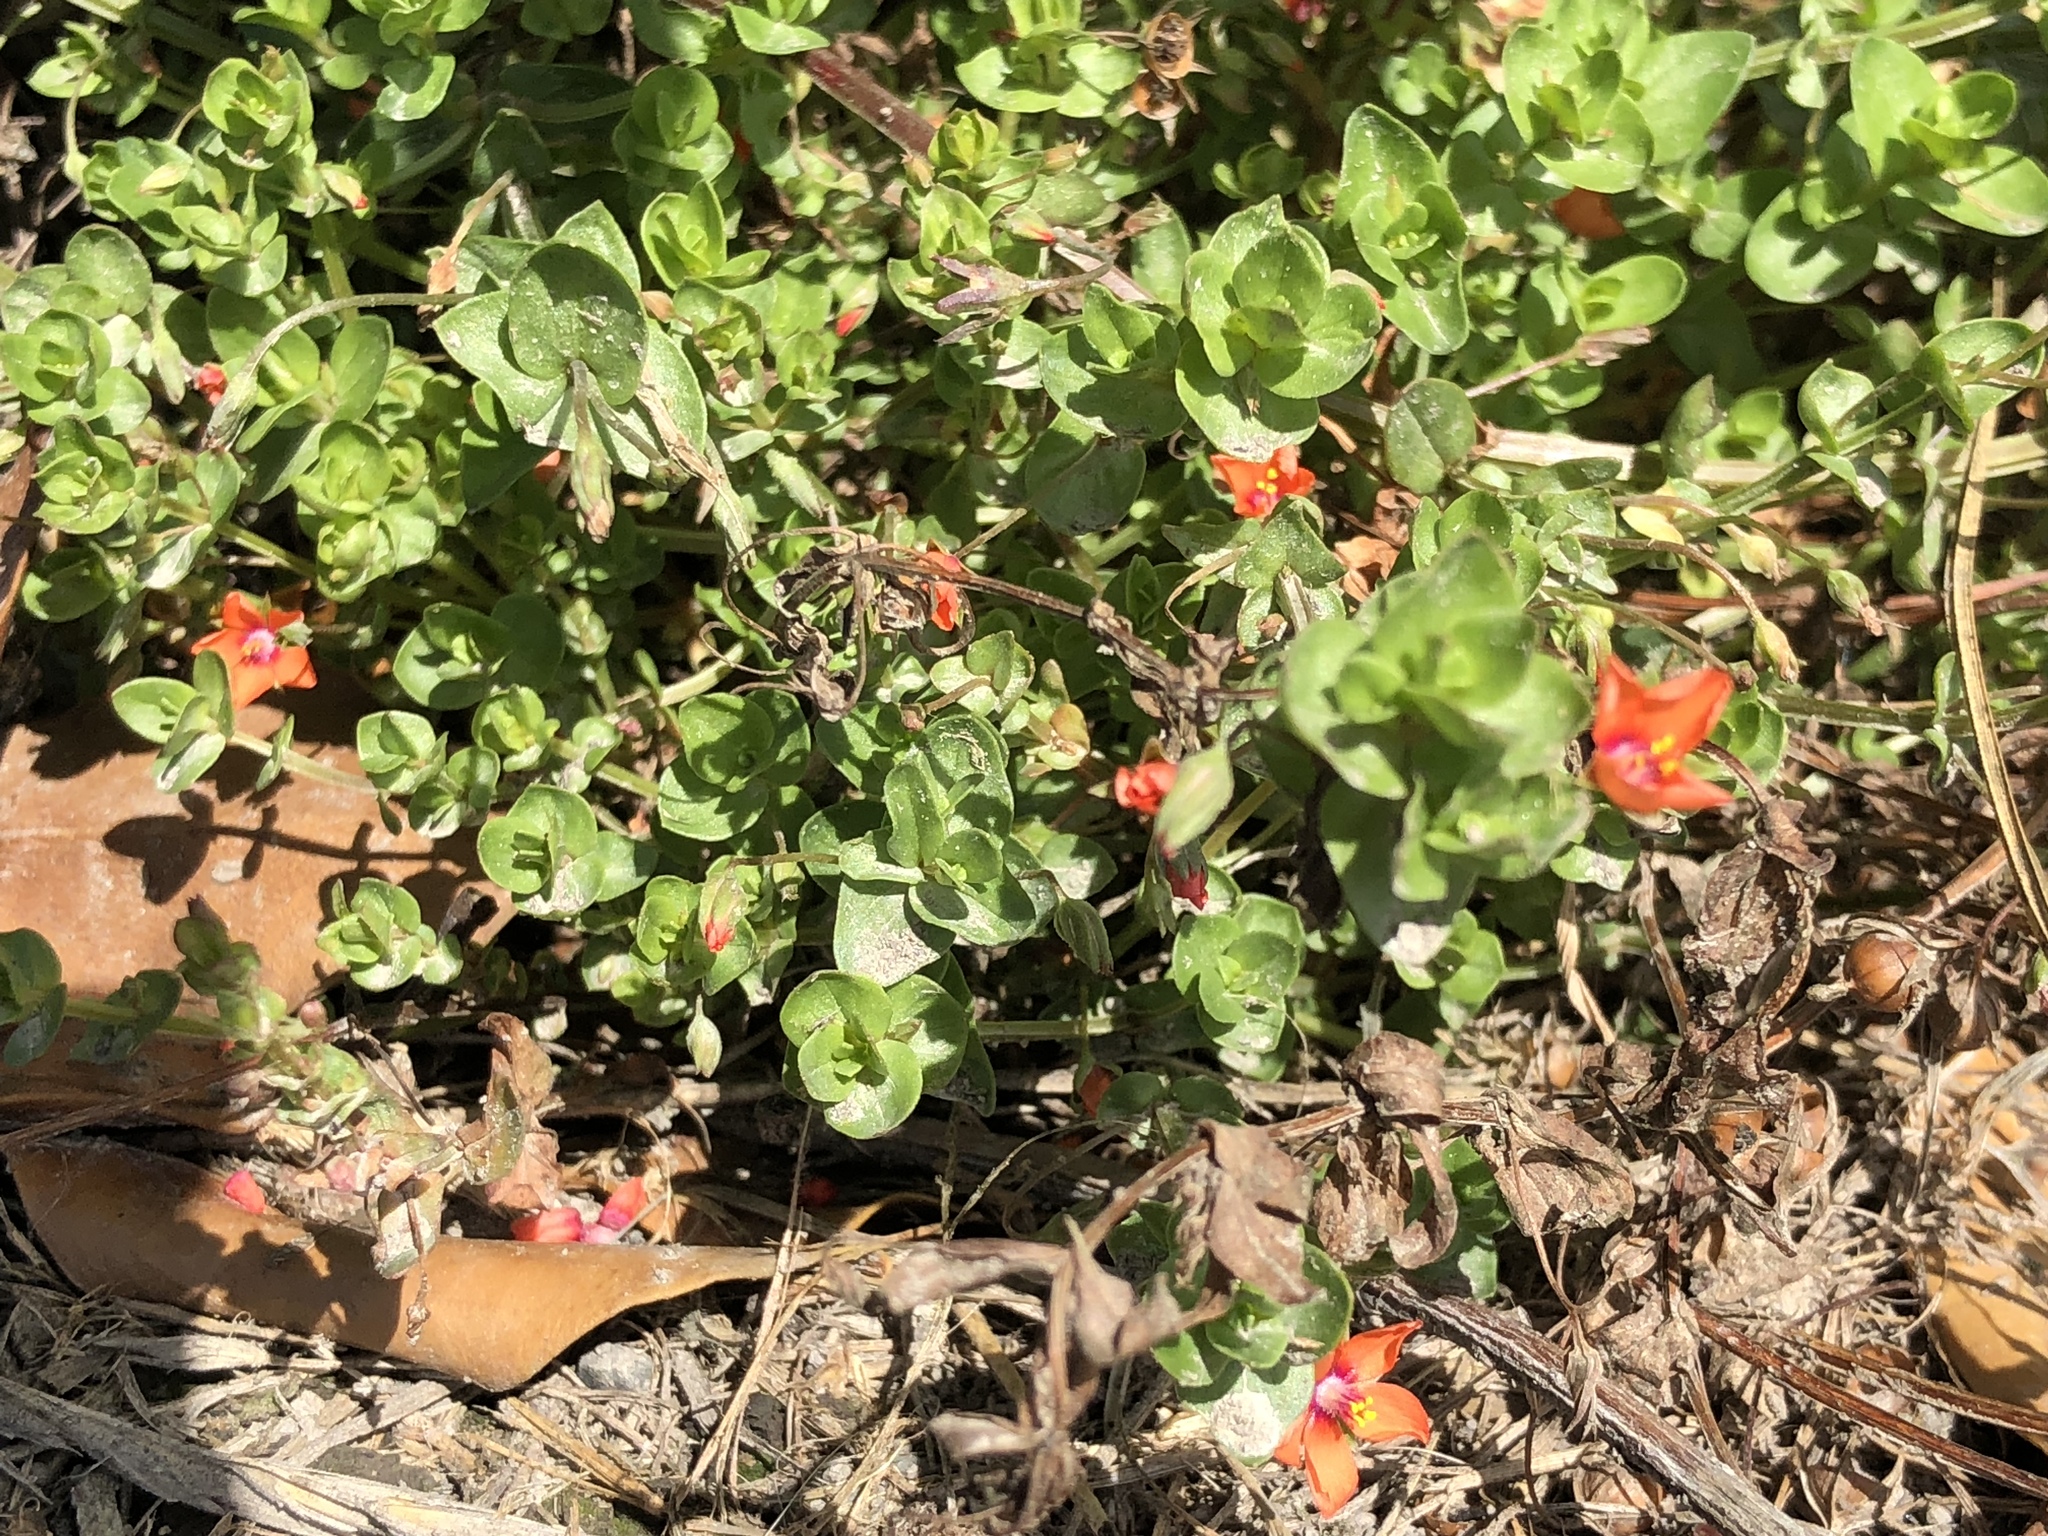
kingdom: Plantae
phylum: Tracheophyta
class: Magnoliopsida
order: Ericales
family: Primulaceae
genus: Lysimachia
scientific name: Lysimachia arvensis
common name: Scarlet pimpernel
